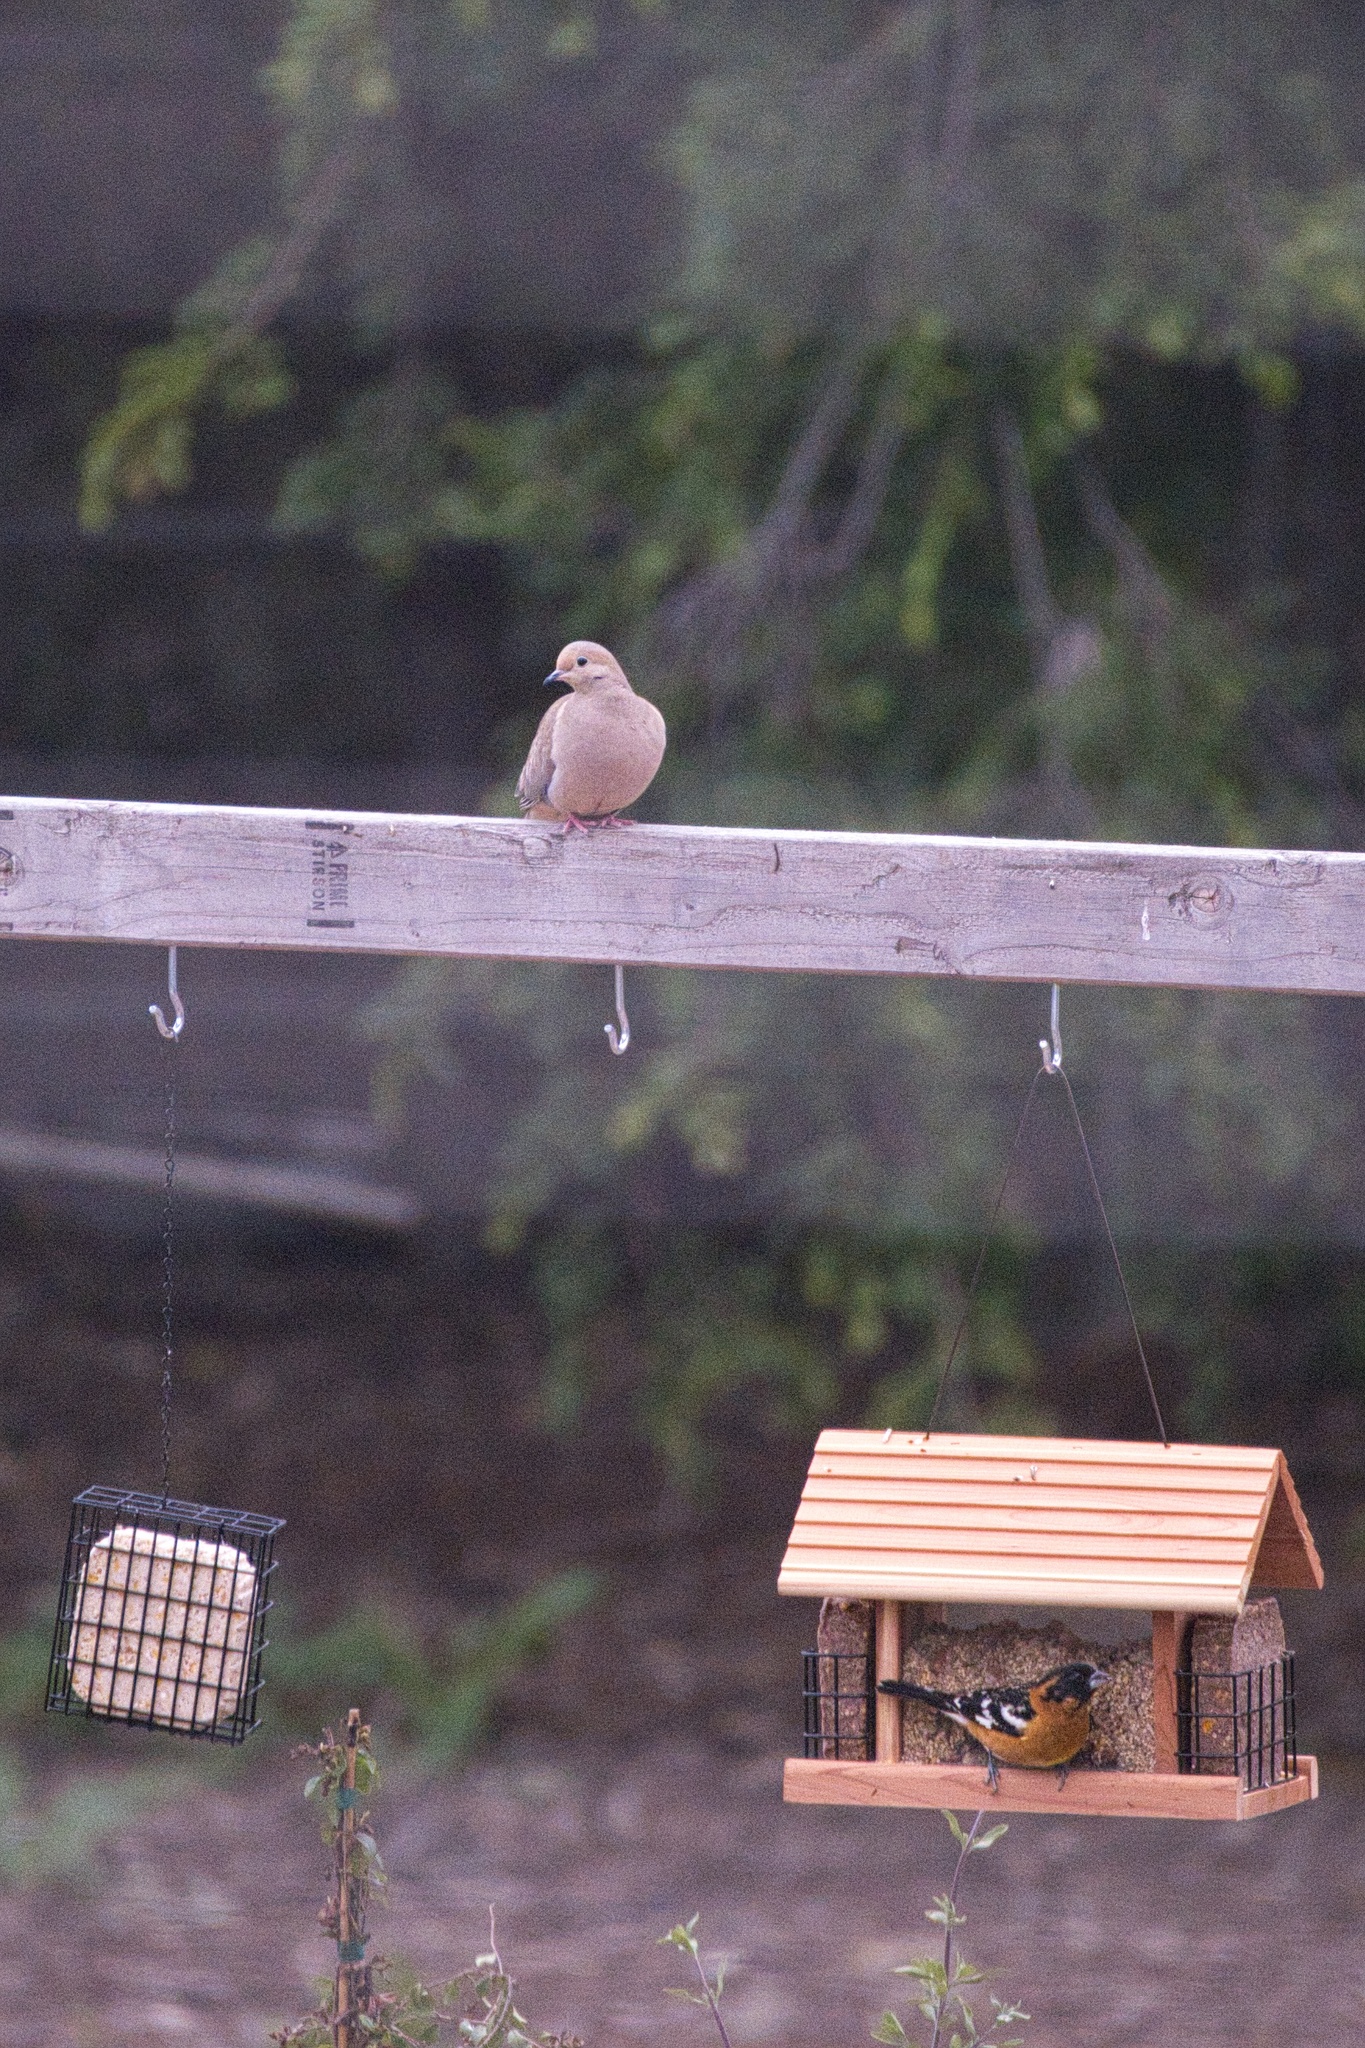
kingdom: Animalia
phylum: Chordata
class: Aves
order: Columbiformes
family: Columbidae
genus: Zenaida
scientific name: Zenaida macroura
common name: Mourning dove
